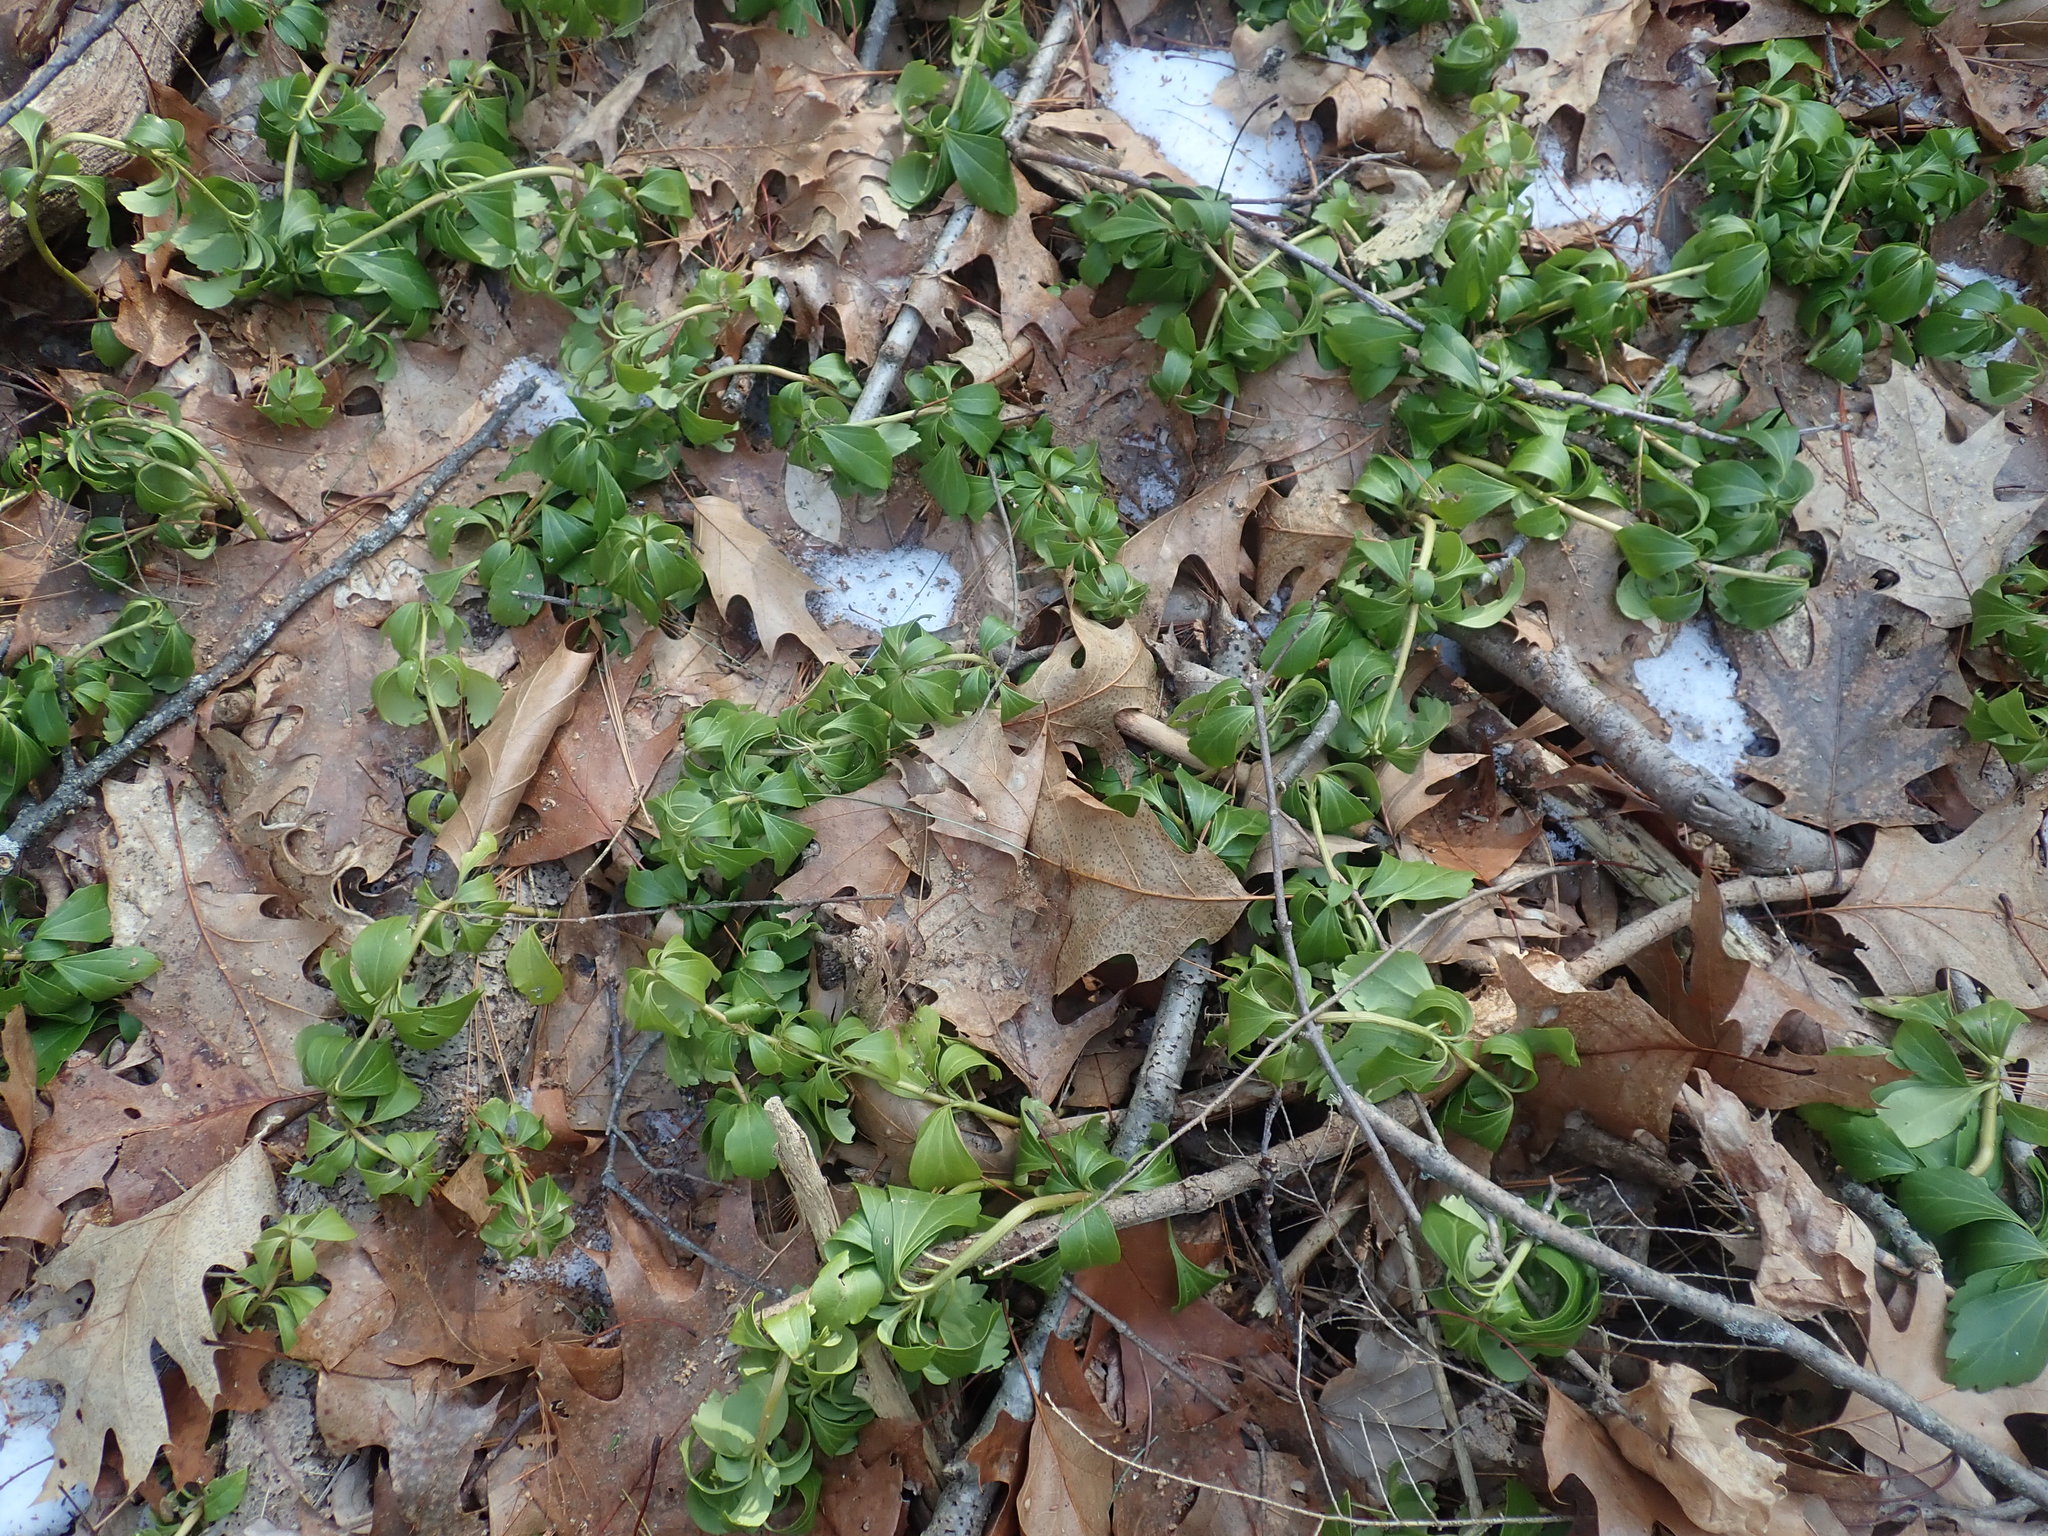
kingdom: Plantae
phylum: Tracheophyta
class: Magnoliopsida
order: Buxales
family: Buxaceae
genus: Pachysandra
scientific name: Pachysandra terminalis
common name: Japanese pachysandra
